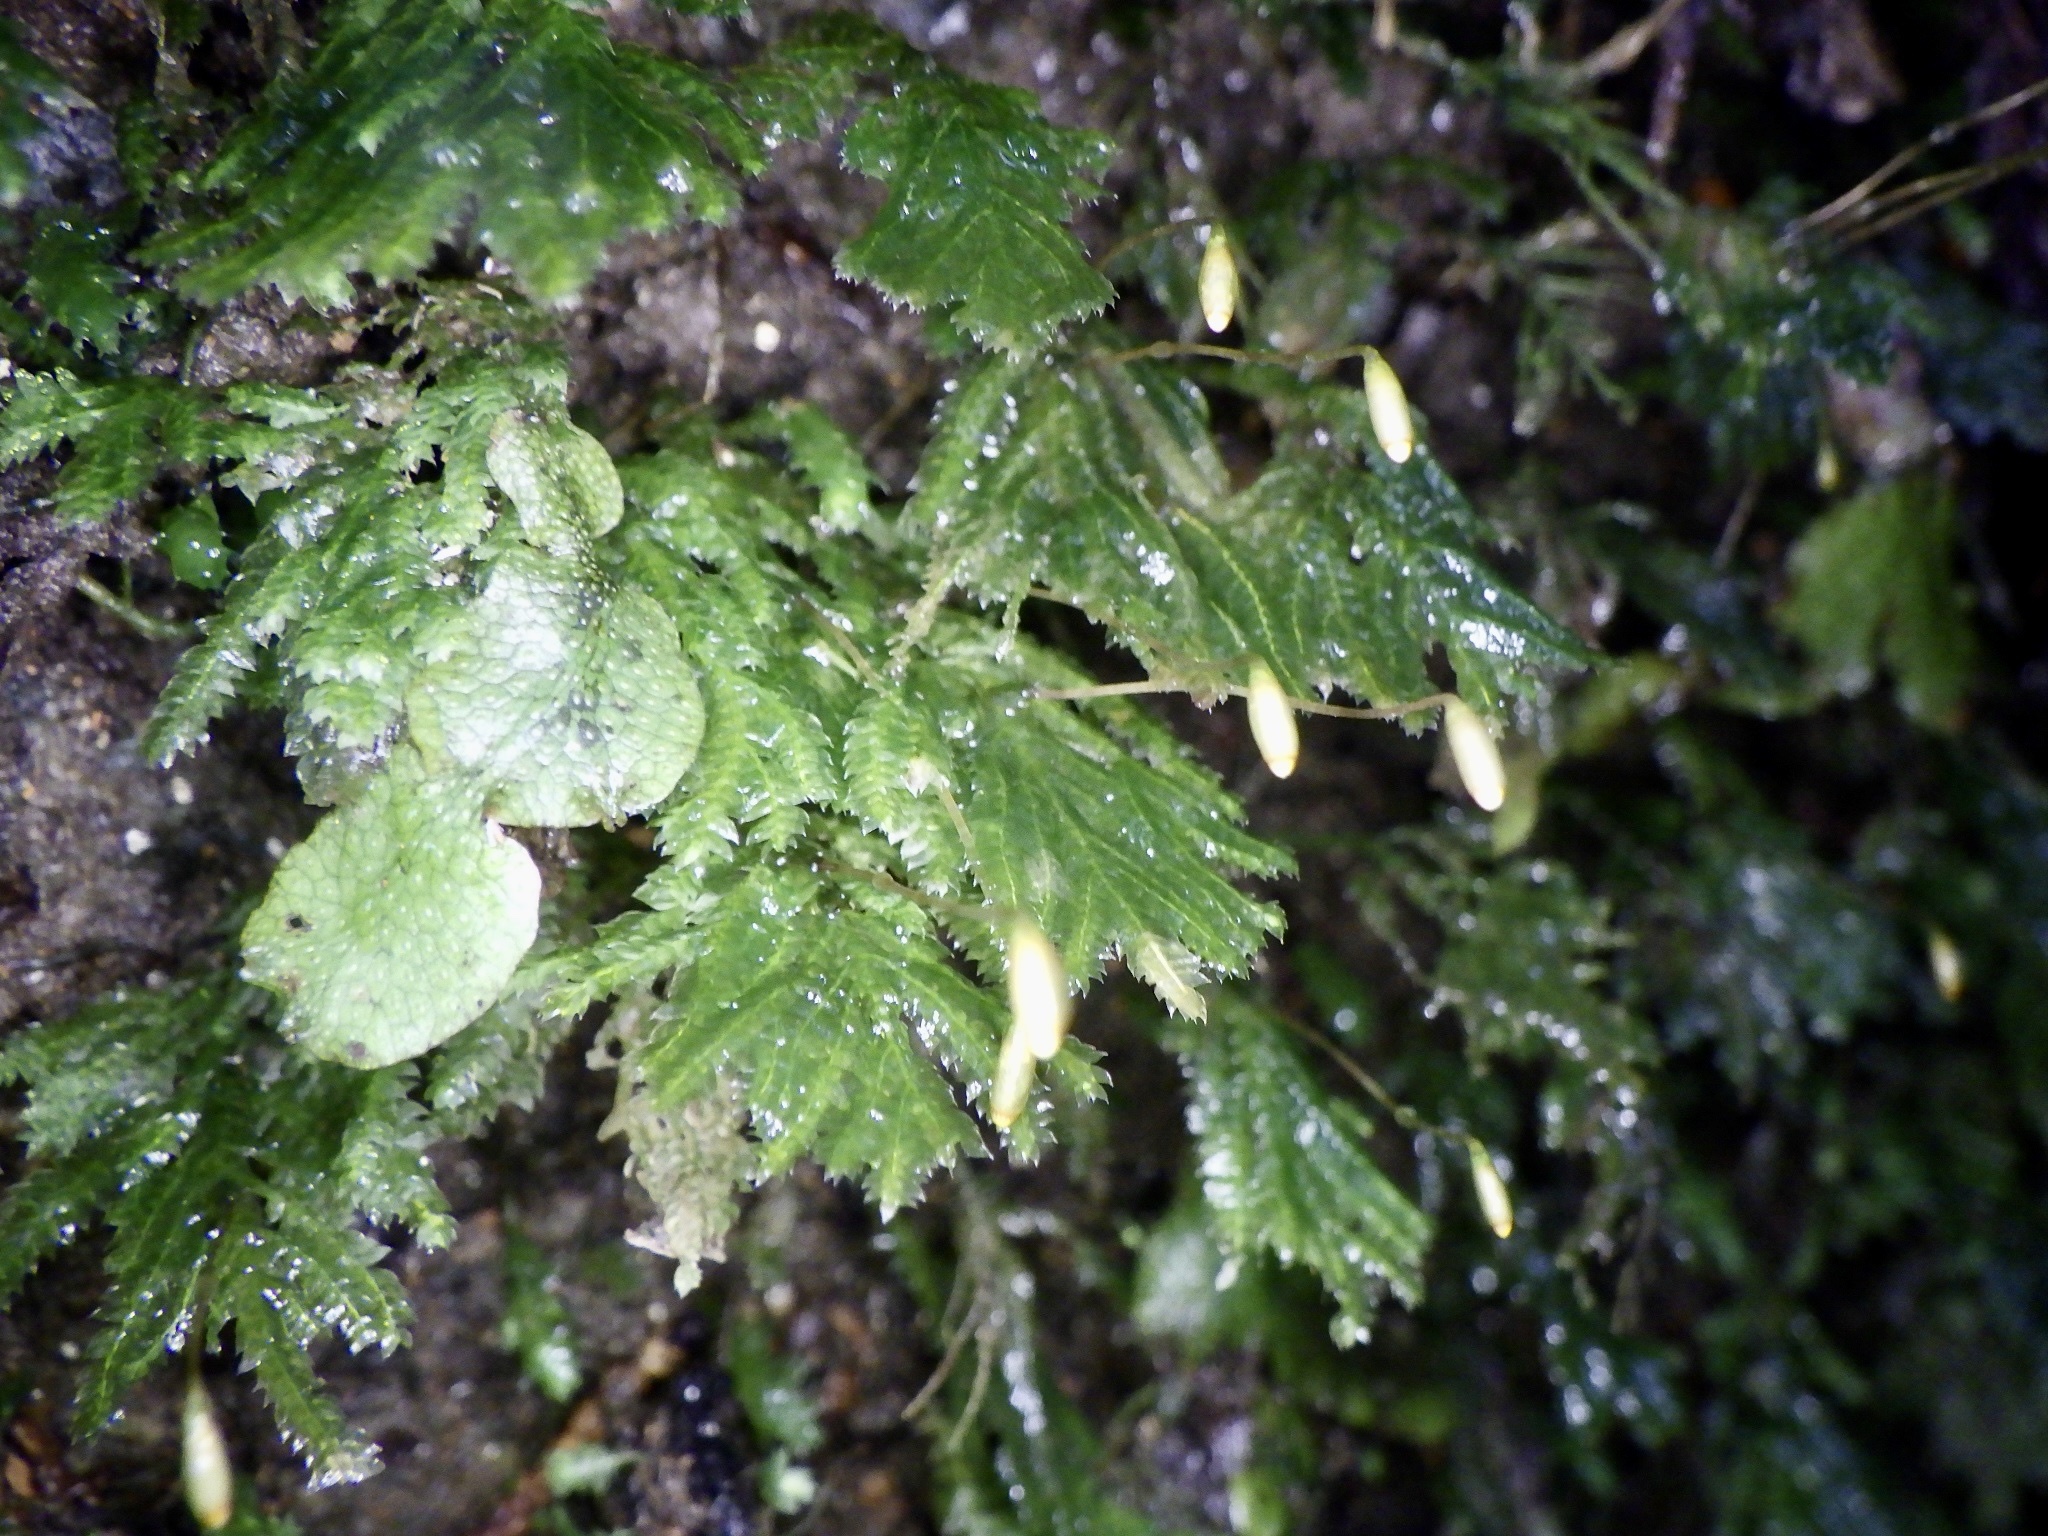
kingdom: Plantae
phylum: Bryophyta
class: Bryopsida
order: Hypopterygiales
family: Hypopterygiaceae
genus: Hypopterygium
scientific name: Hypopterygium flavolimbatum
